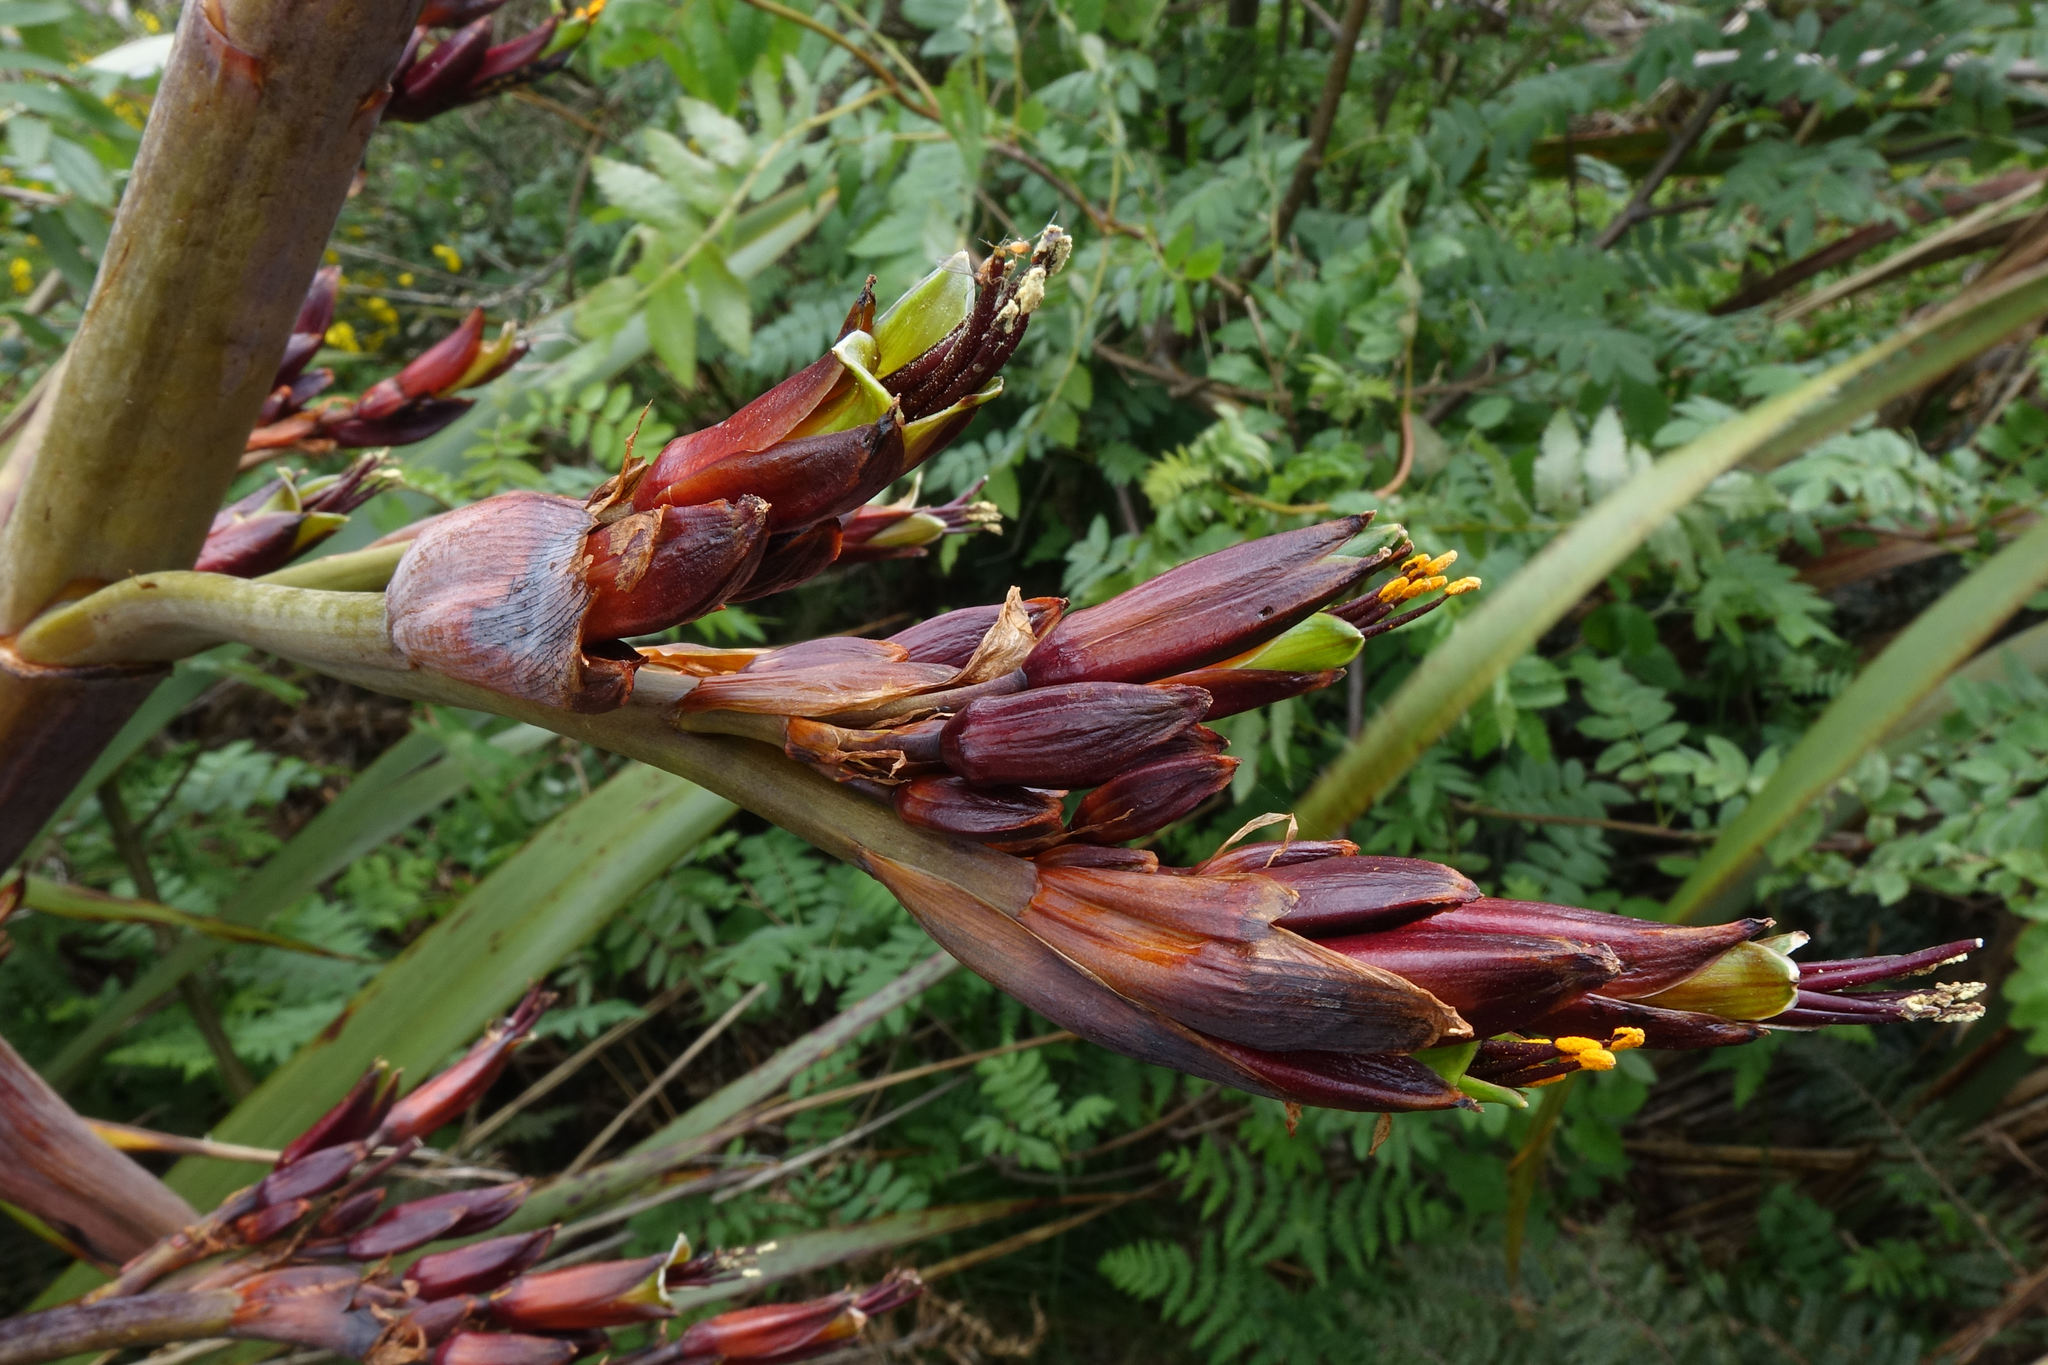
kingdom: Plantae
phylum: Tracheophyta
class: Liliopsida
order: Asparagales
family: Asphodelaceae
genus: Phormium
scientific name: Phormium colensoi
